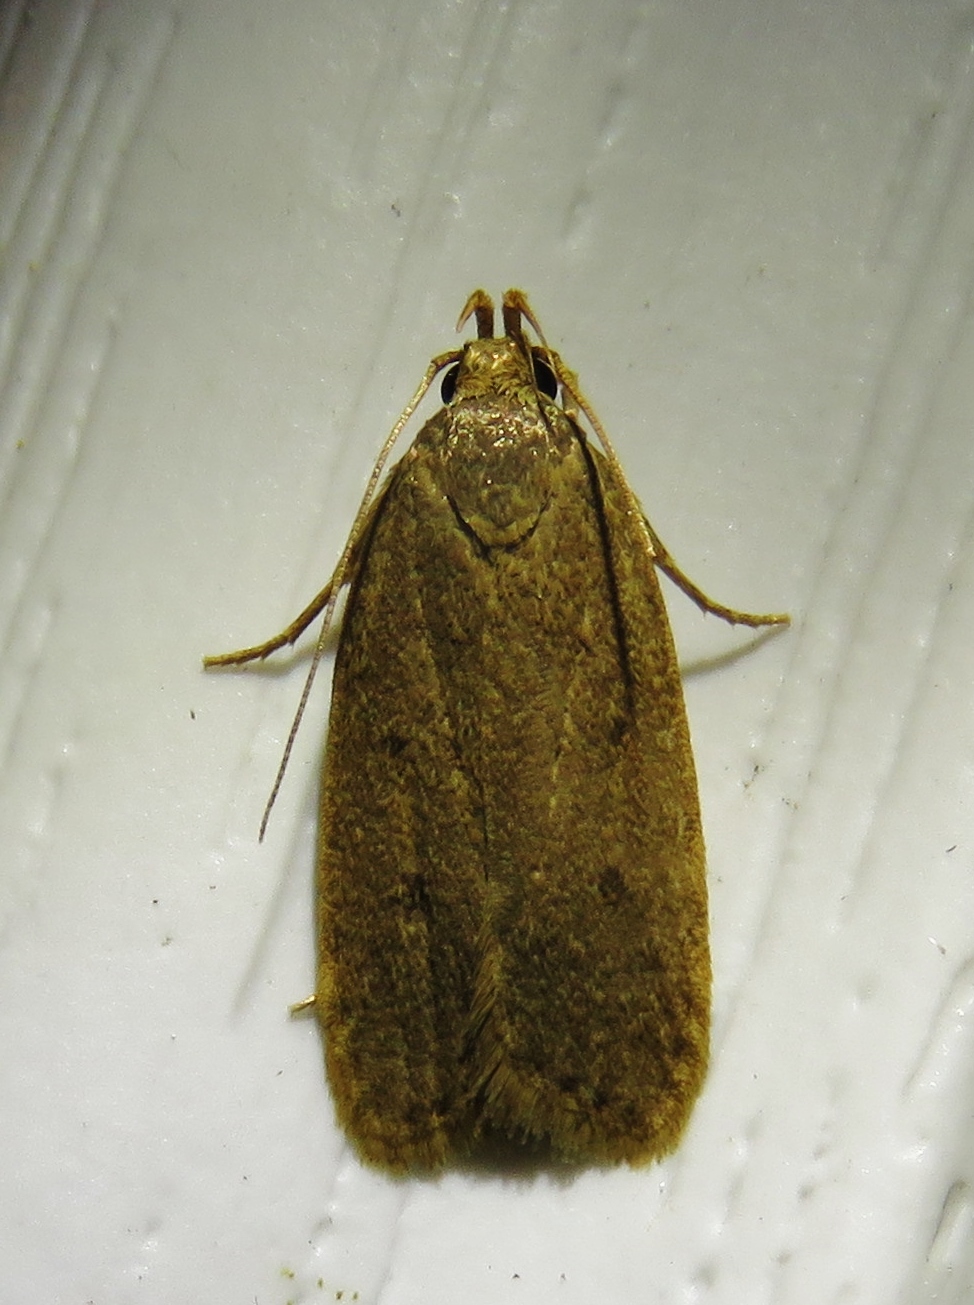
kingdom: Animalia
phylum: Arthropoda
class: Insecta
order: Lepidoptera
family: Autostichidae
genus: Autosticha
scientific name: Autosticha kyotensis
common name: Kyoto moth
